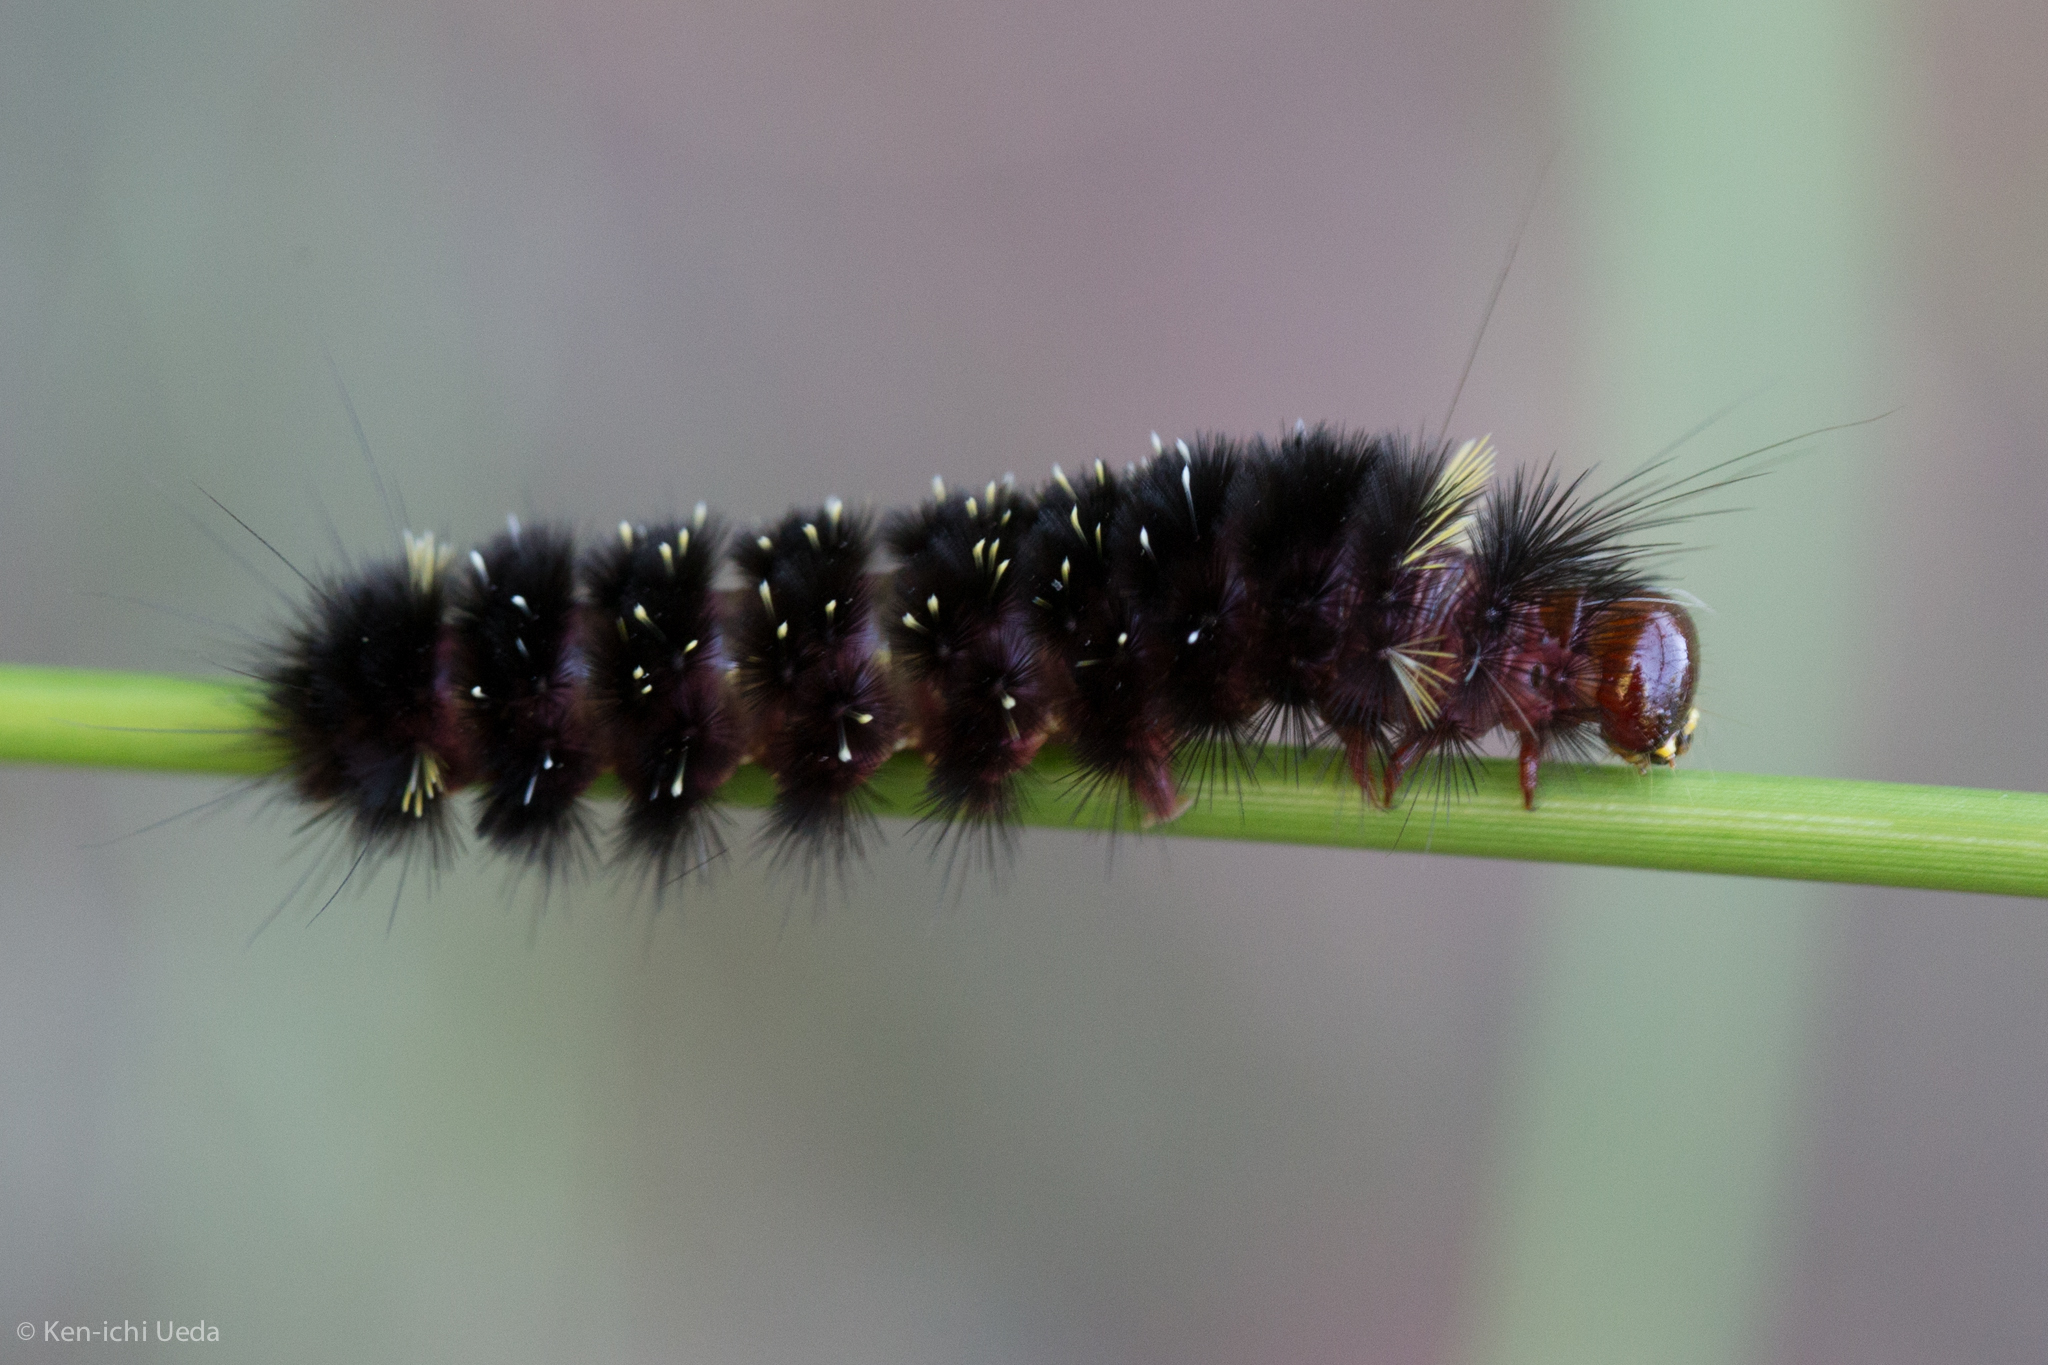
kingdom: Animalia
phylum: Arthropoda
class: Insecta
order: Lepidoptera
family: Erebidae
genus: Hypocrisias
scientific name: Hypocrisias minima
